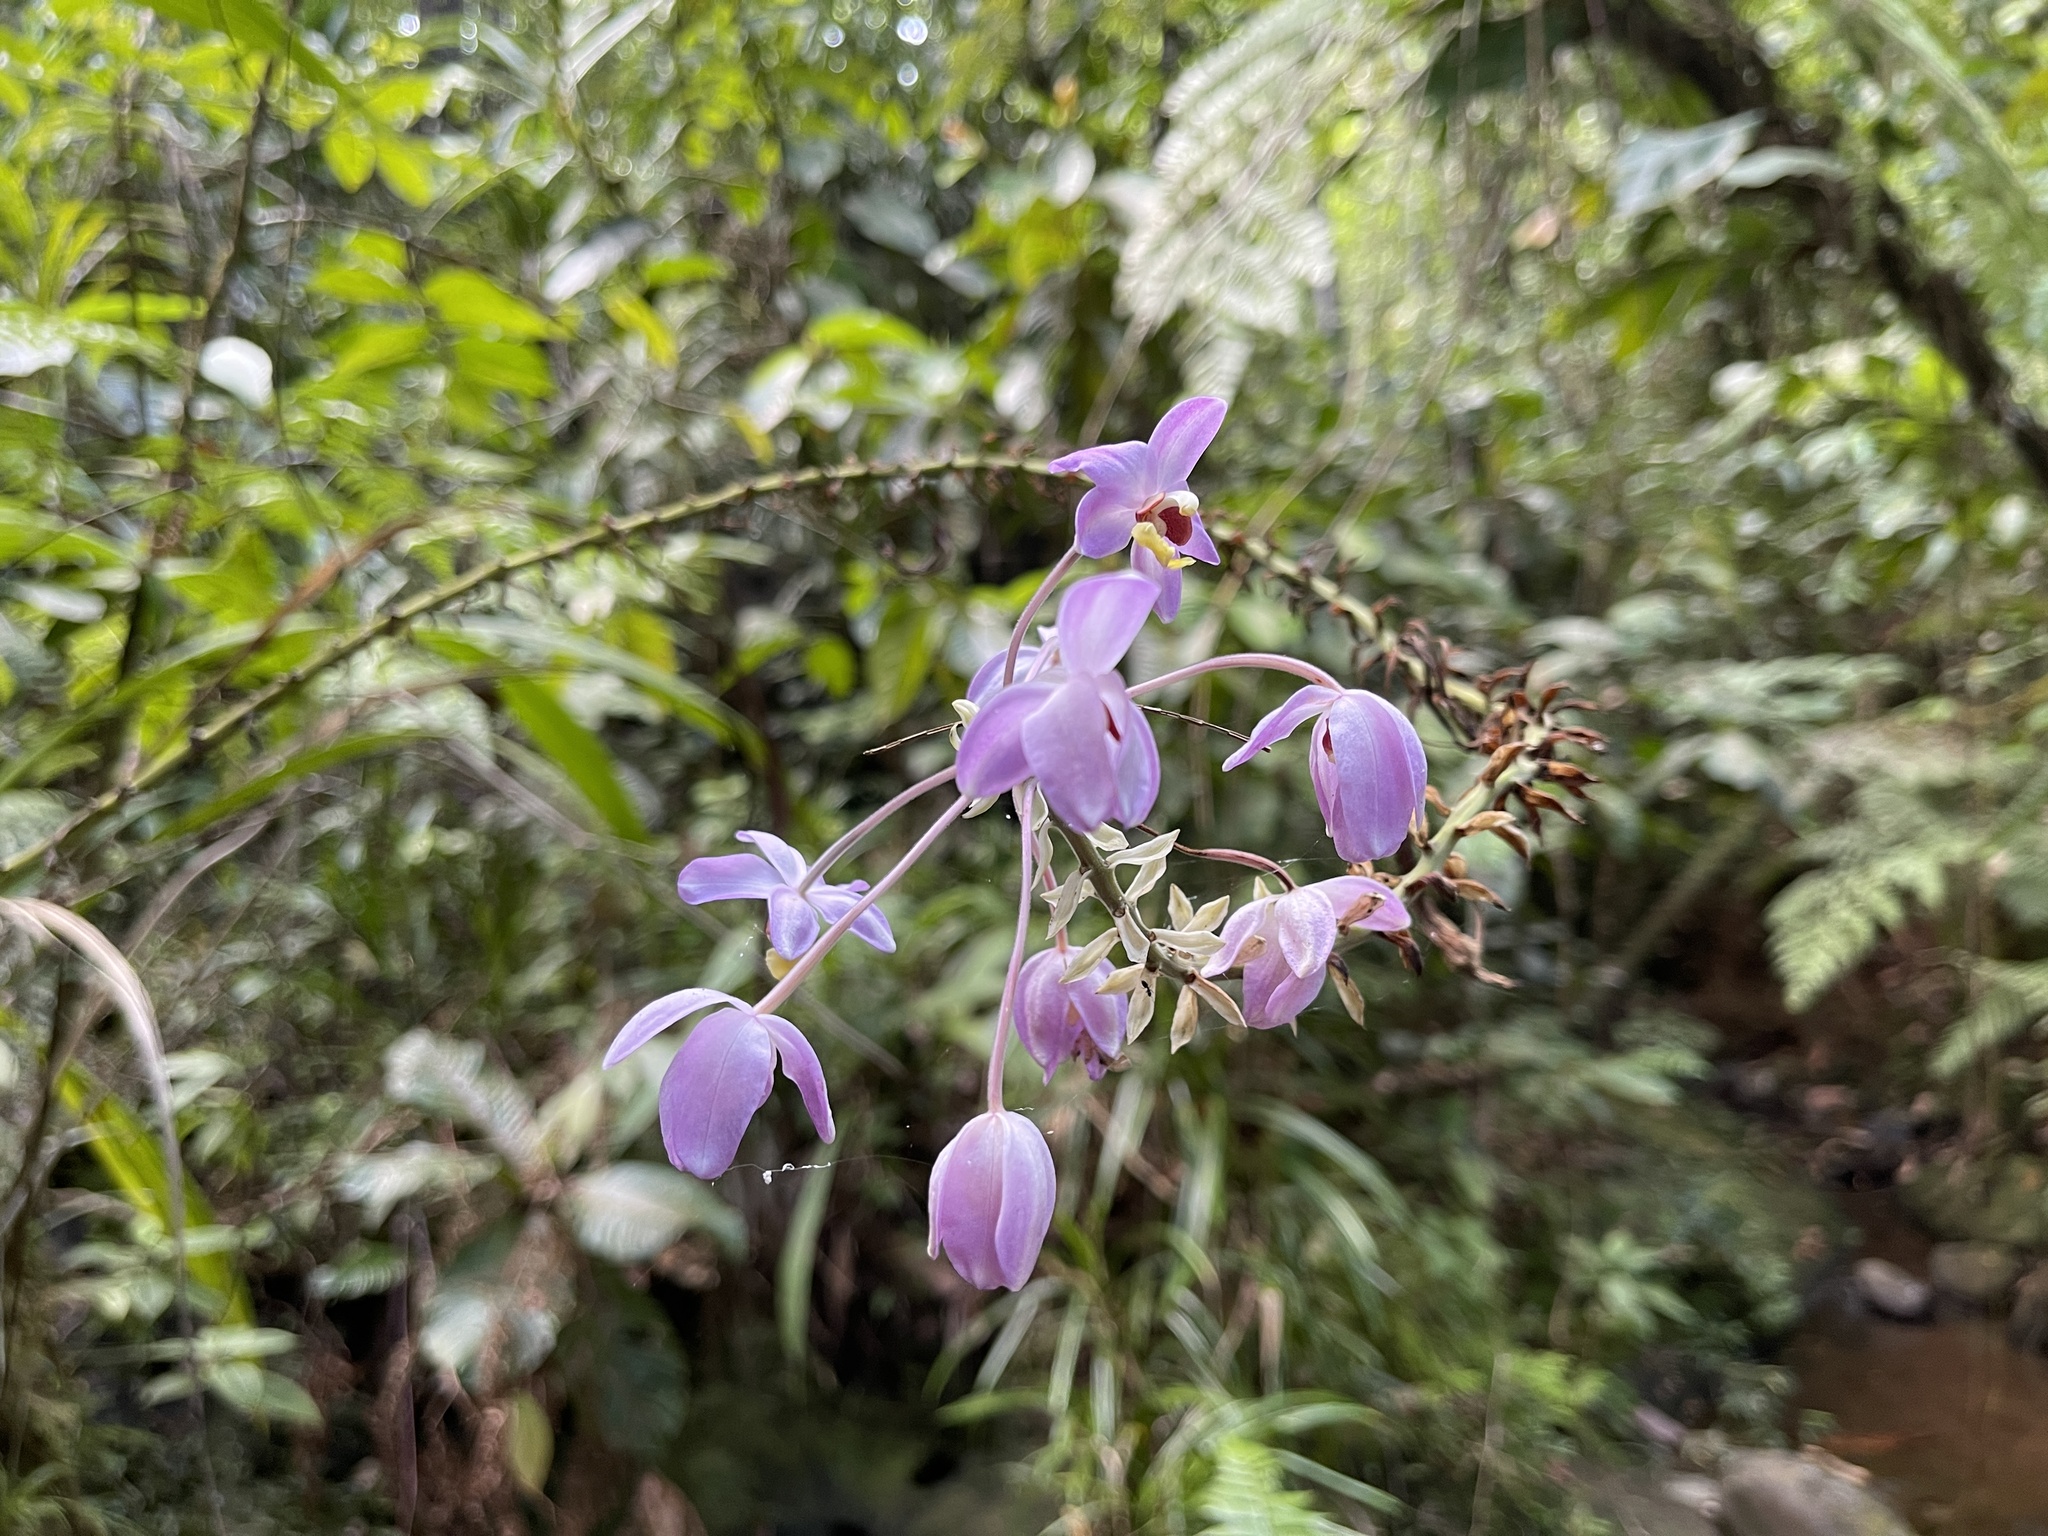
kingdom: Plantae
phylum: Tracheophyta
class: Liliopsida
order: Asparagales
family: Orchidaceae
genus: Spathoglottis
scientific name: Spathoglottis pacifica
